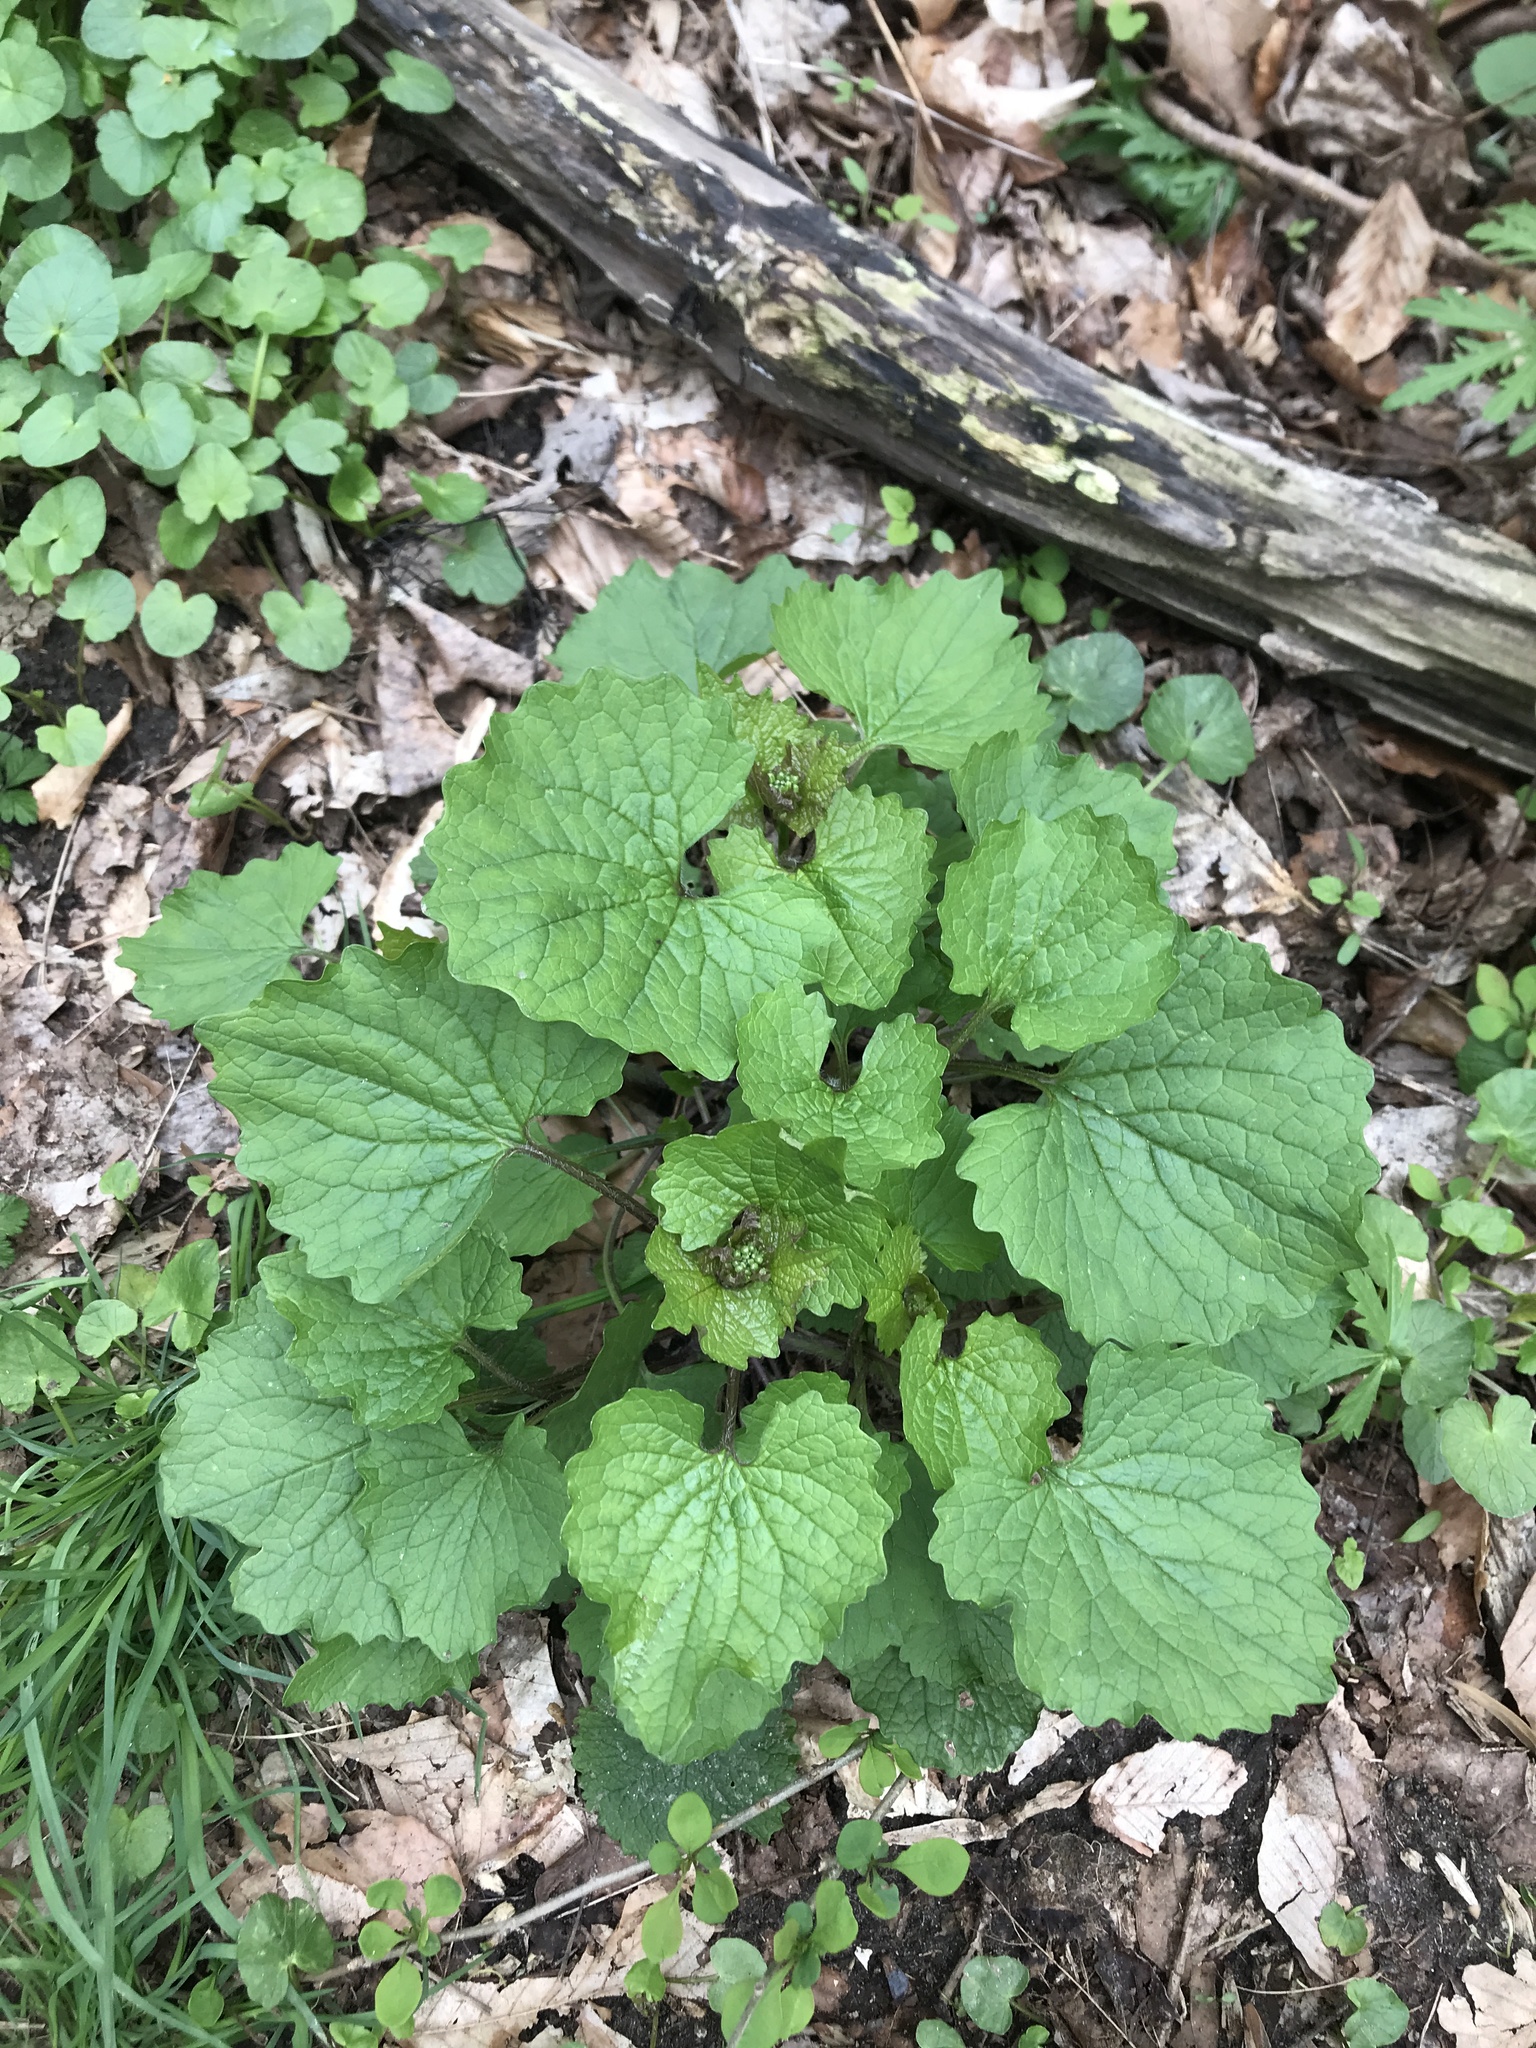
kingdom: Plantae
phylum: Tracheophyta
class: Magnoliopsida
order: Brassicales
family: Brassicaceae
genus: Alliaria
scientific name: Alliaria petiolata
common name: Garlic mustard
